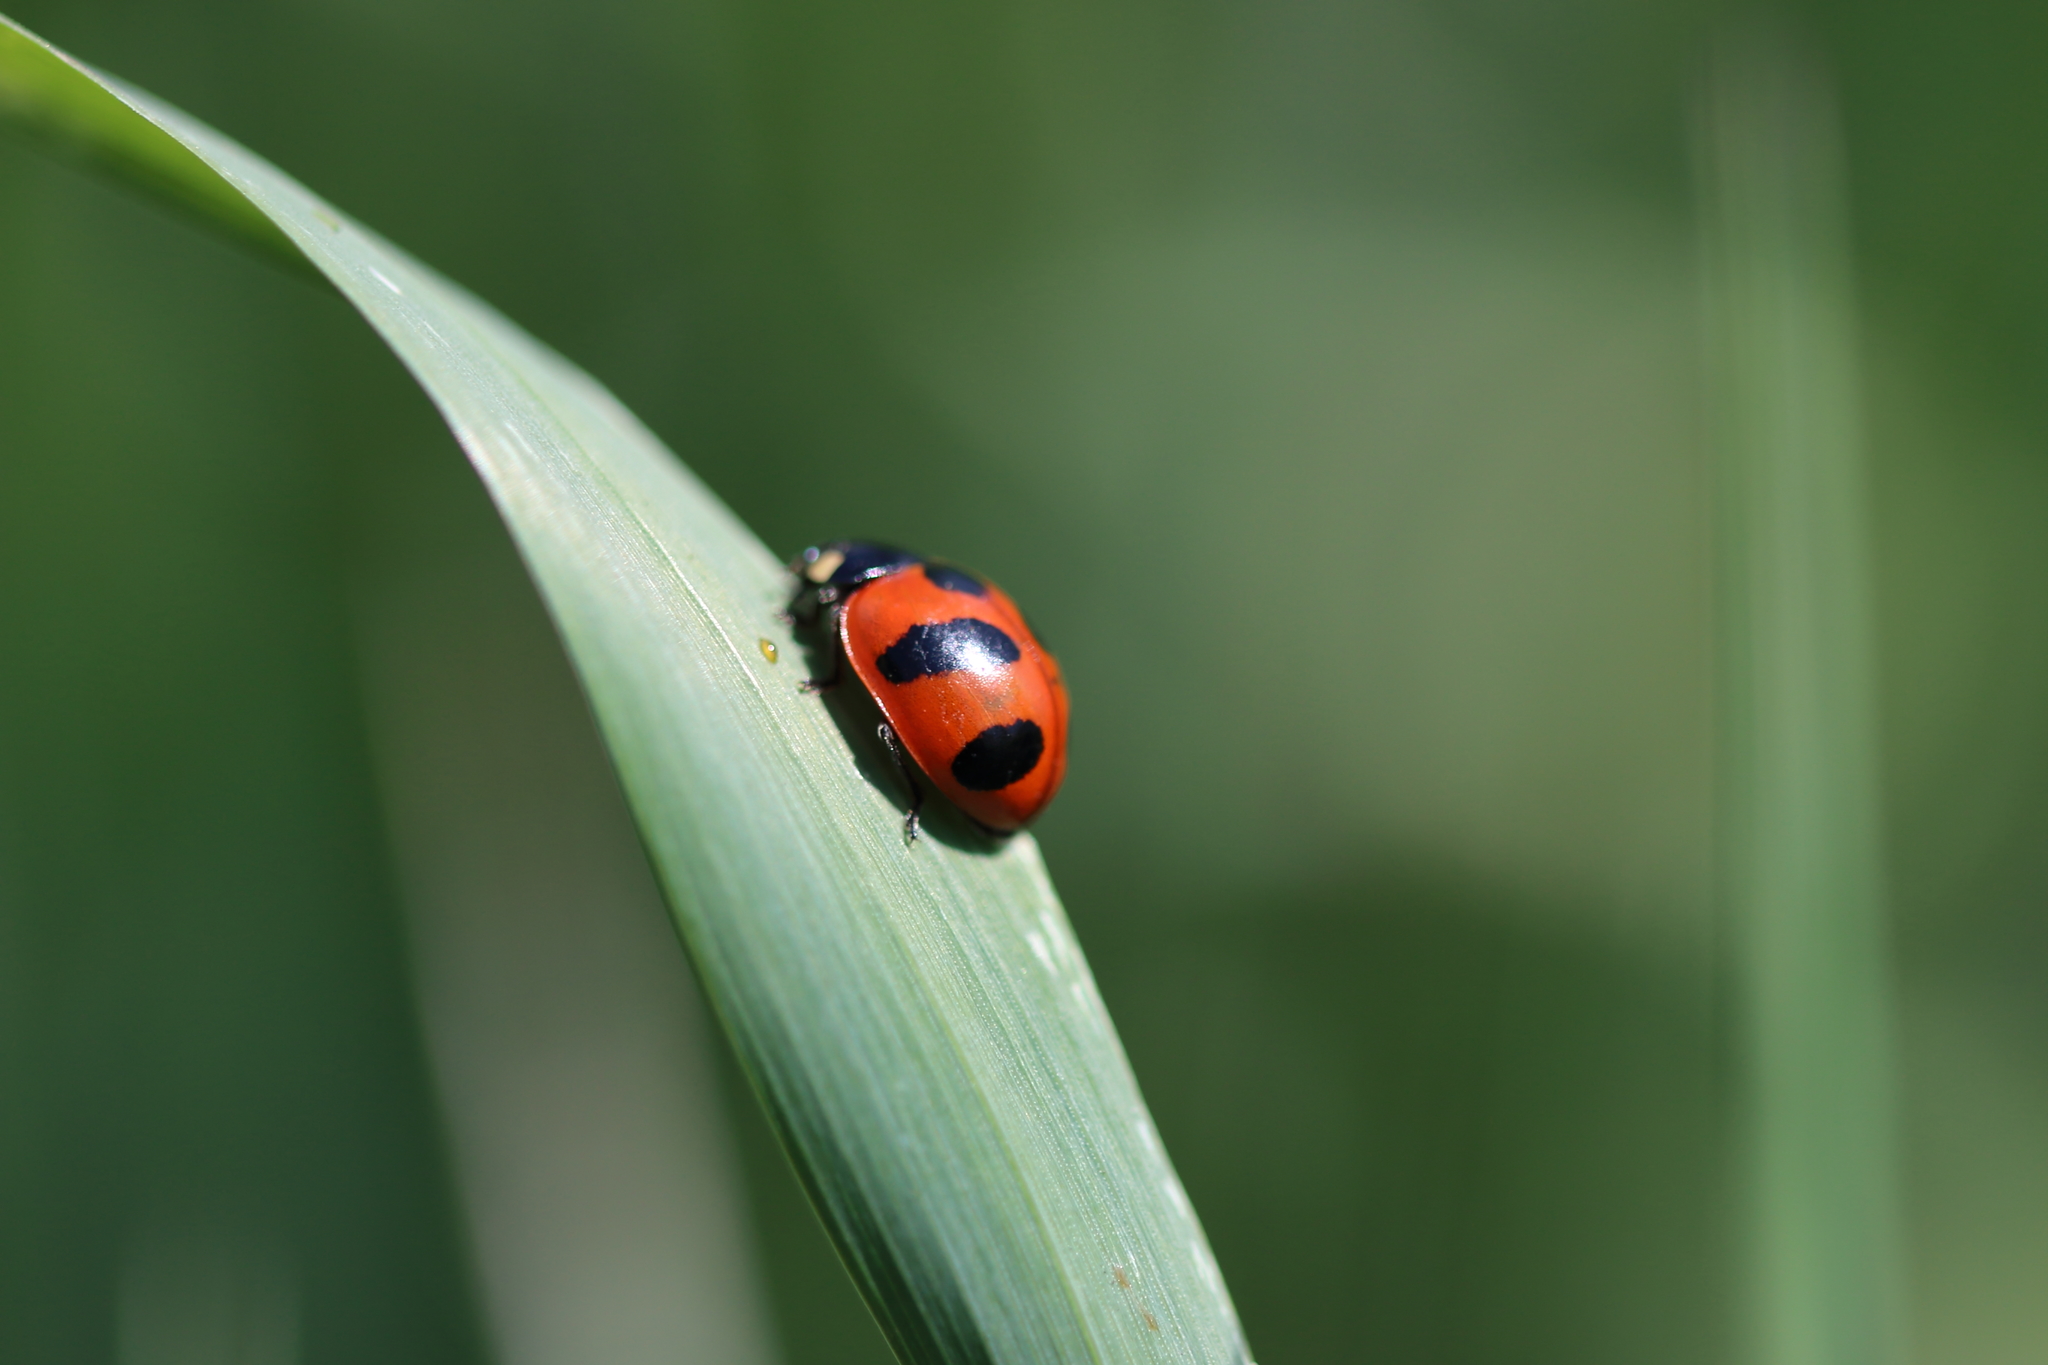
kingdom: Animalia
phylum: Arthropoda
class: Insecta
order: Coleoptera
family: Coccinellidae
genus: Coccinella
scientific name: Coccinella monticola
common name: Mountain lady beetle
